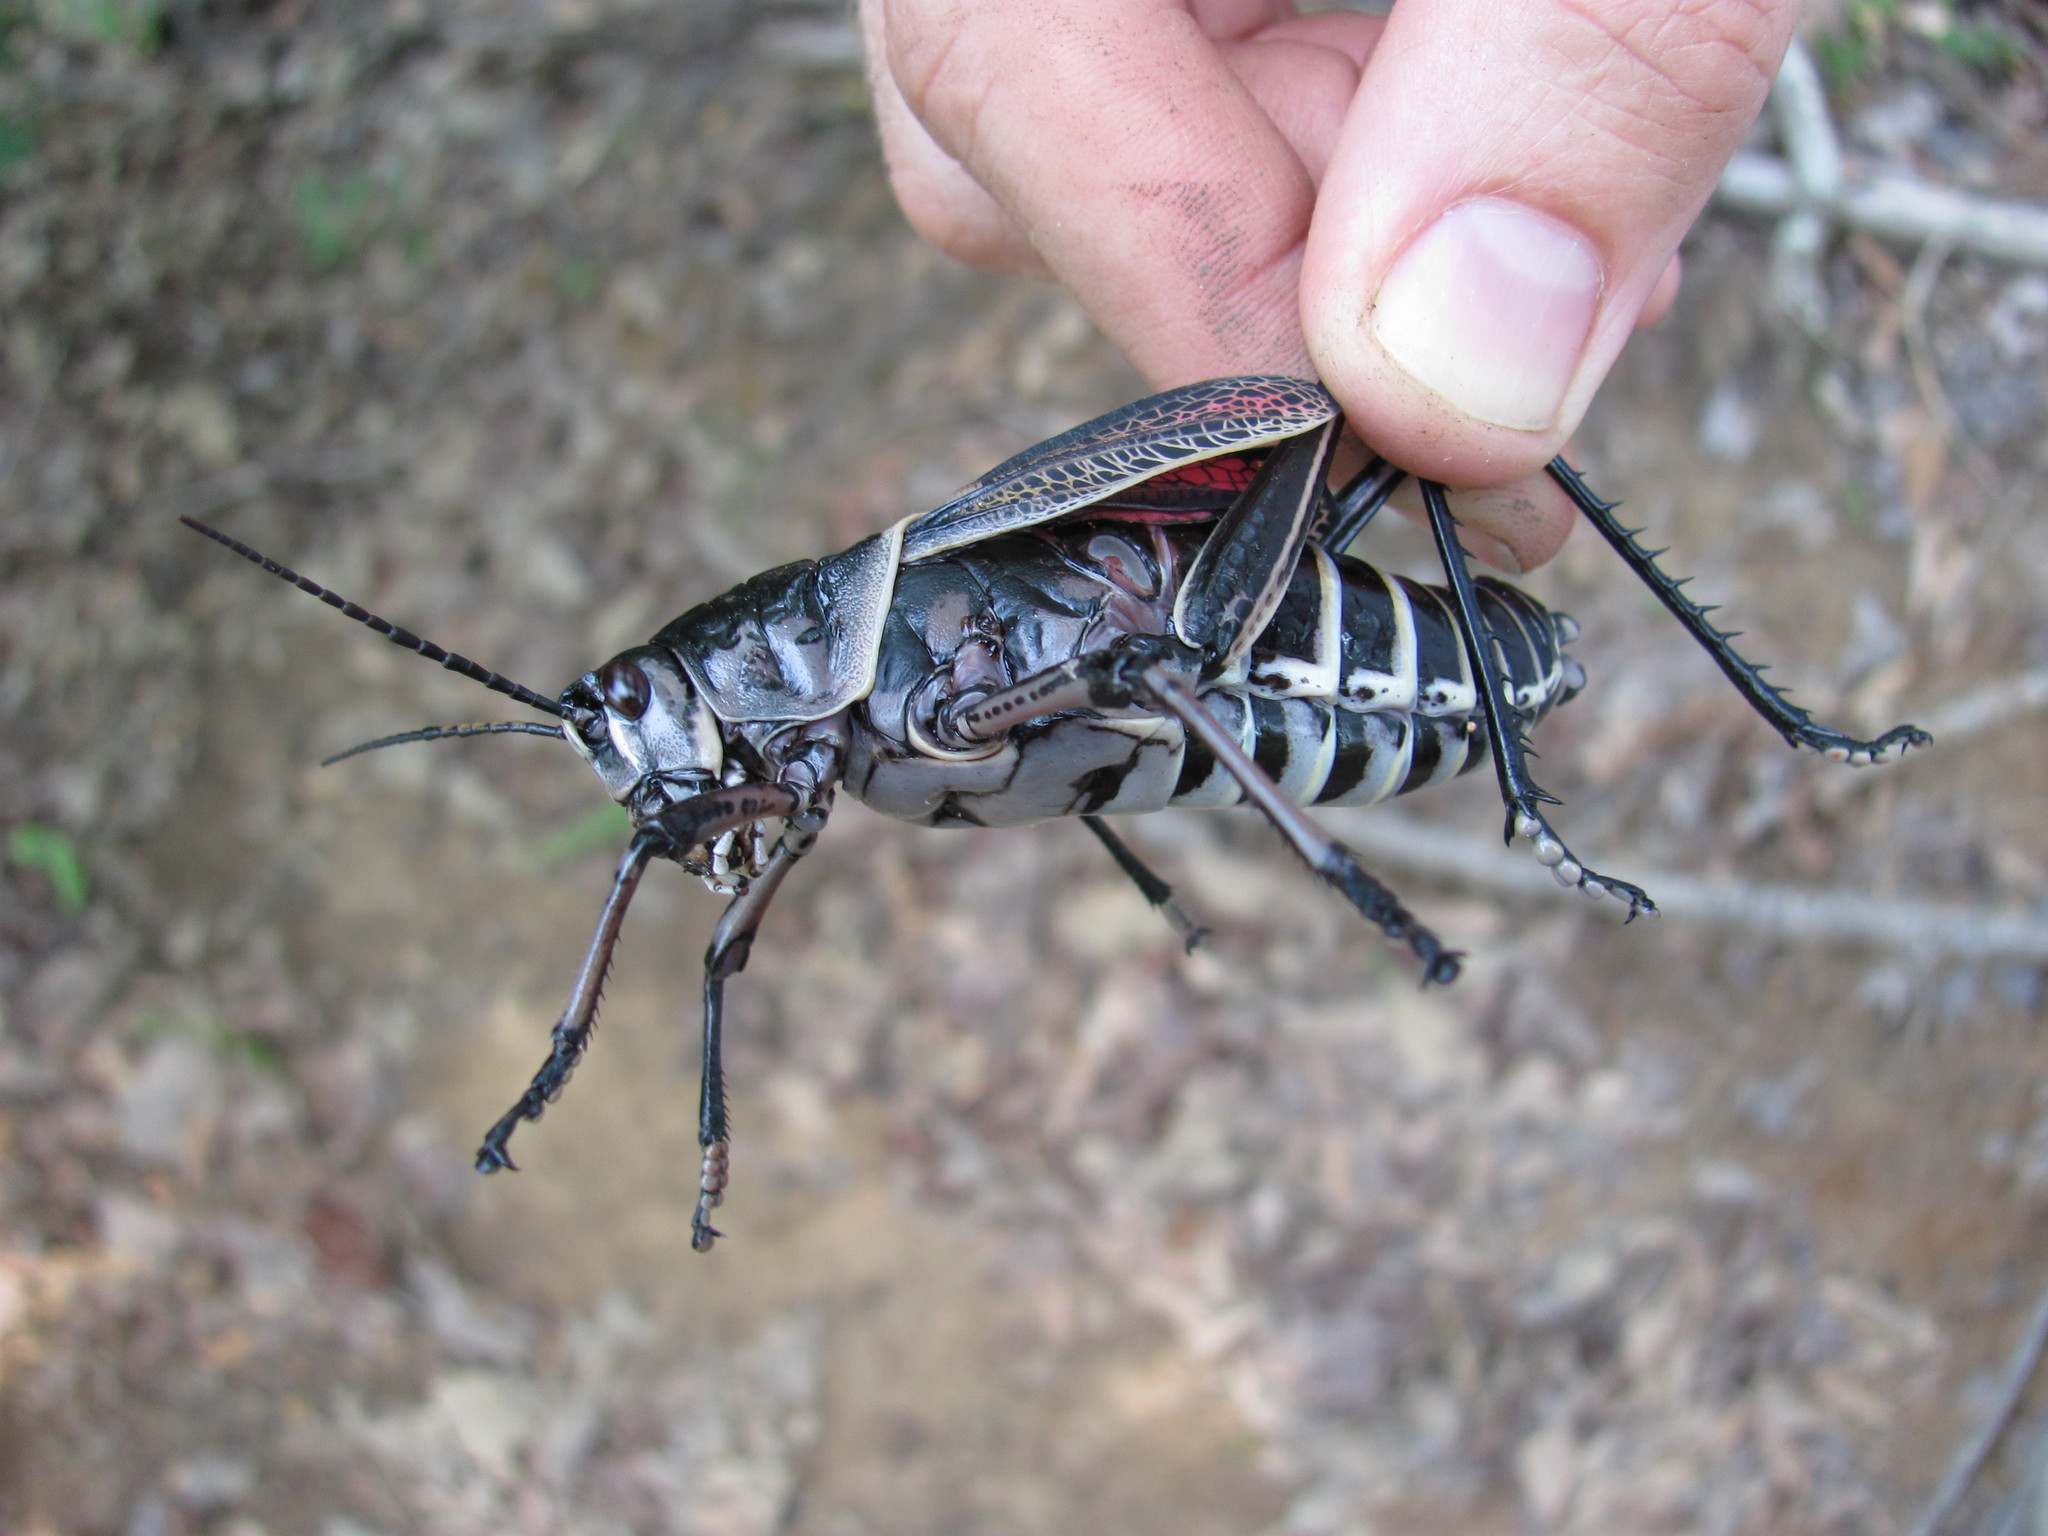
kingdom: Animalia
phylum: Arthropoda
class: Insecta
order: Orthoptera
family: Romaleidae
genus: Romalea
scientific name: Romalea microptera
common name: Eastern lubber grasshopper
